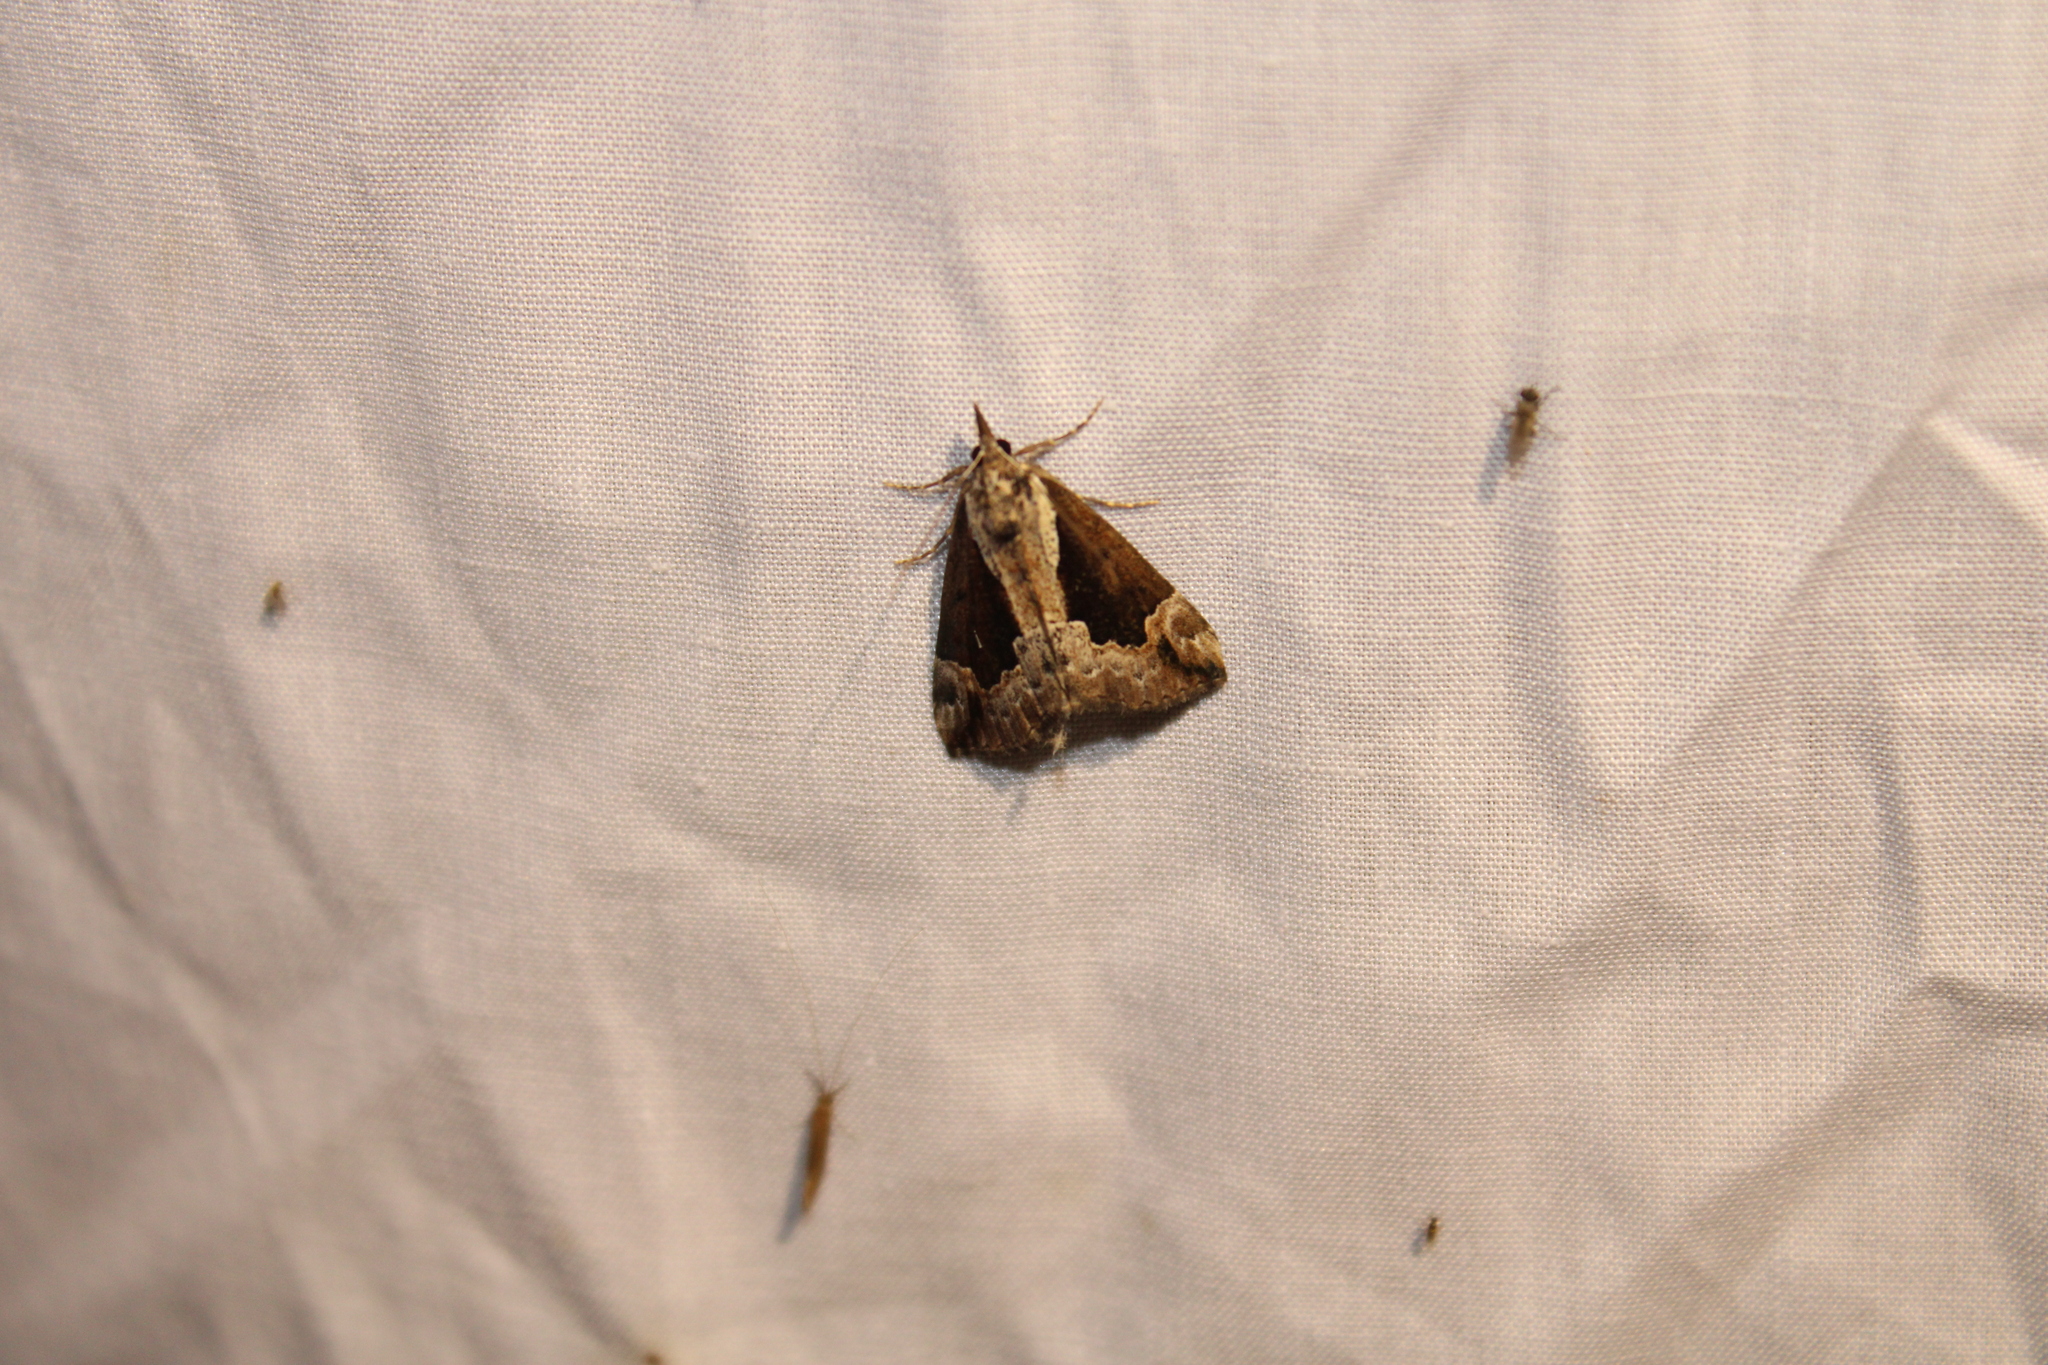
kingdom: Animalia
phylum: Arthropoda
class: Insecta
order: Lepidoptera
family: Erebidae
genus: Hypena
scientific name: Hypena baltimoralis
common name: Baltimore snout
